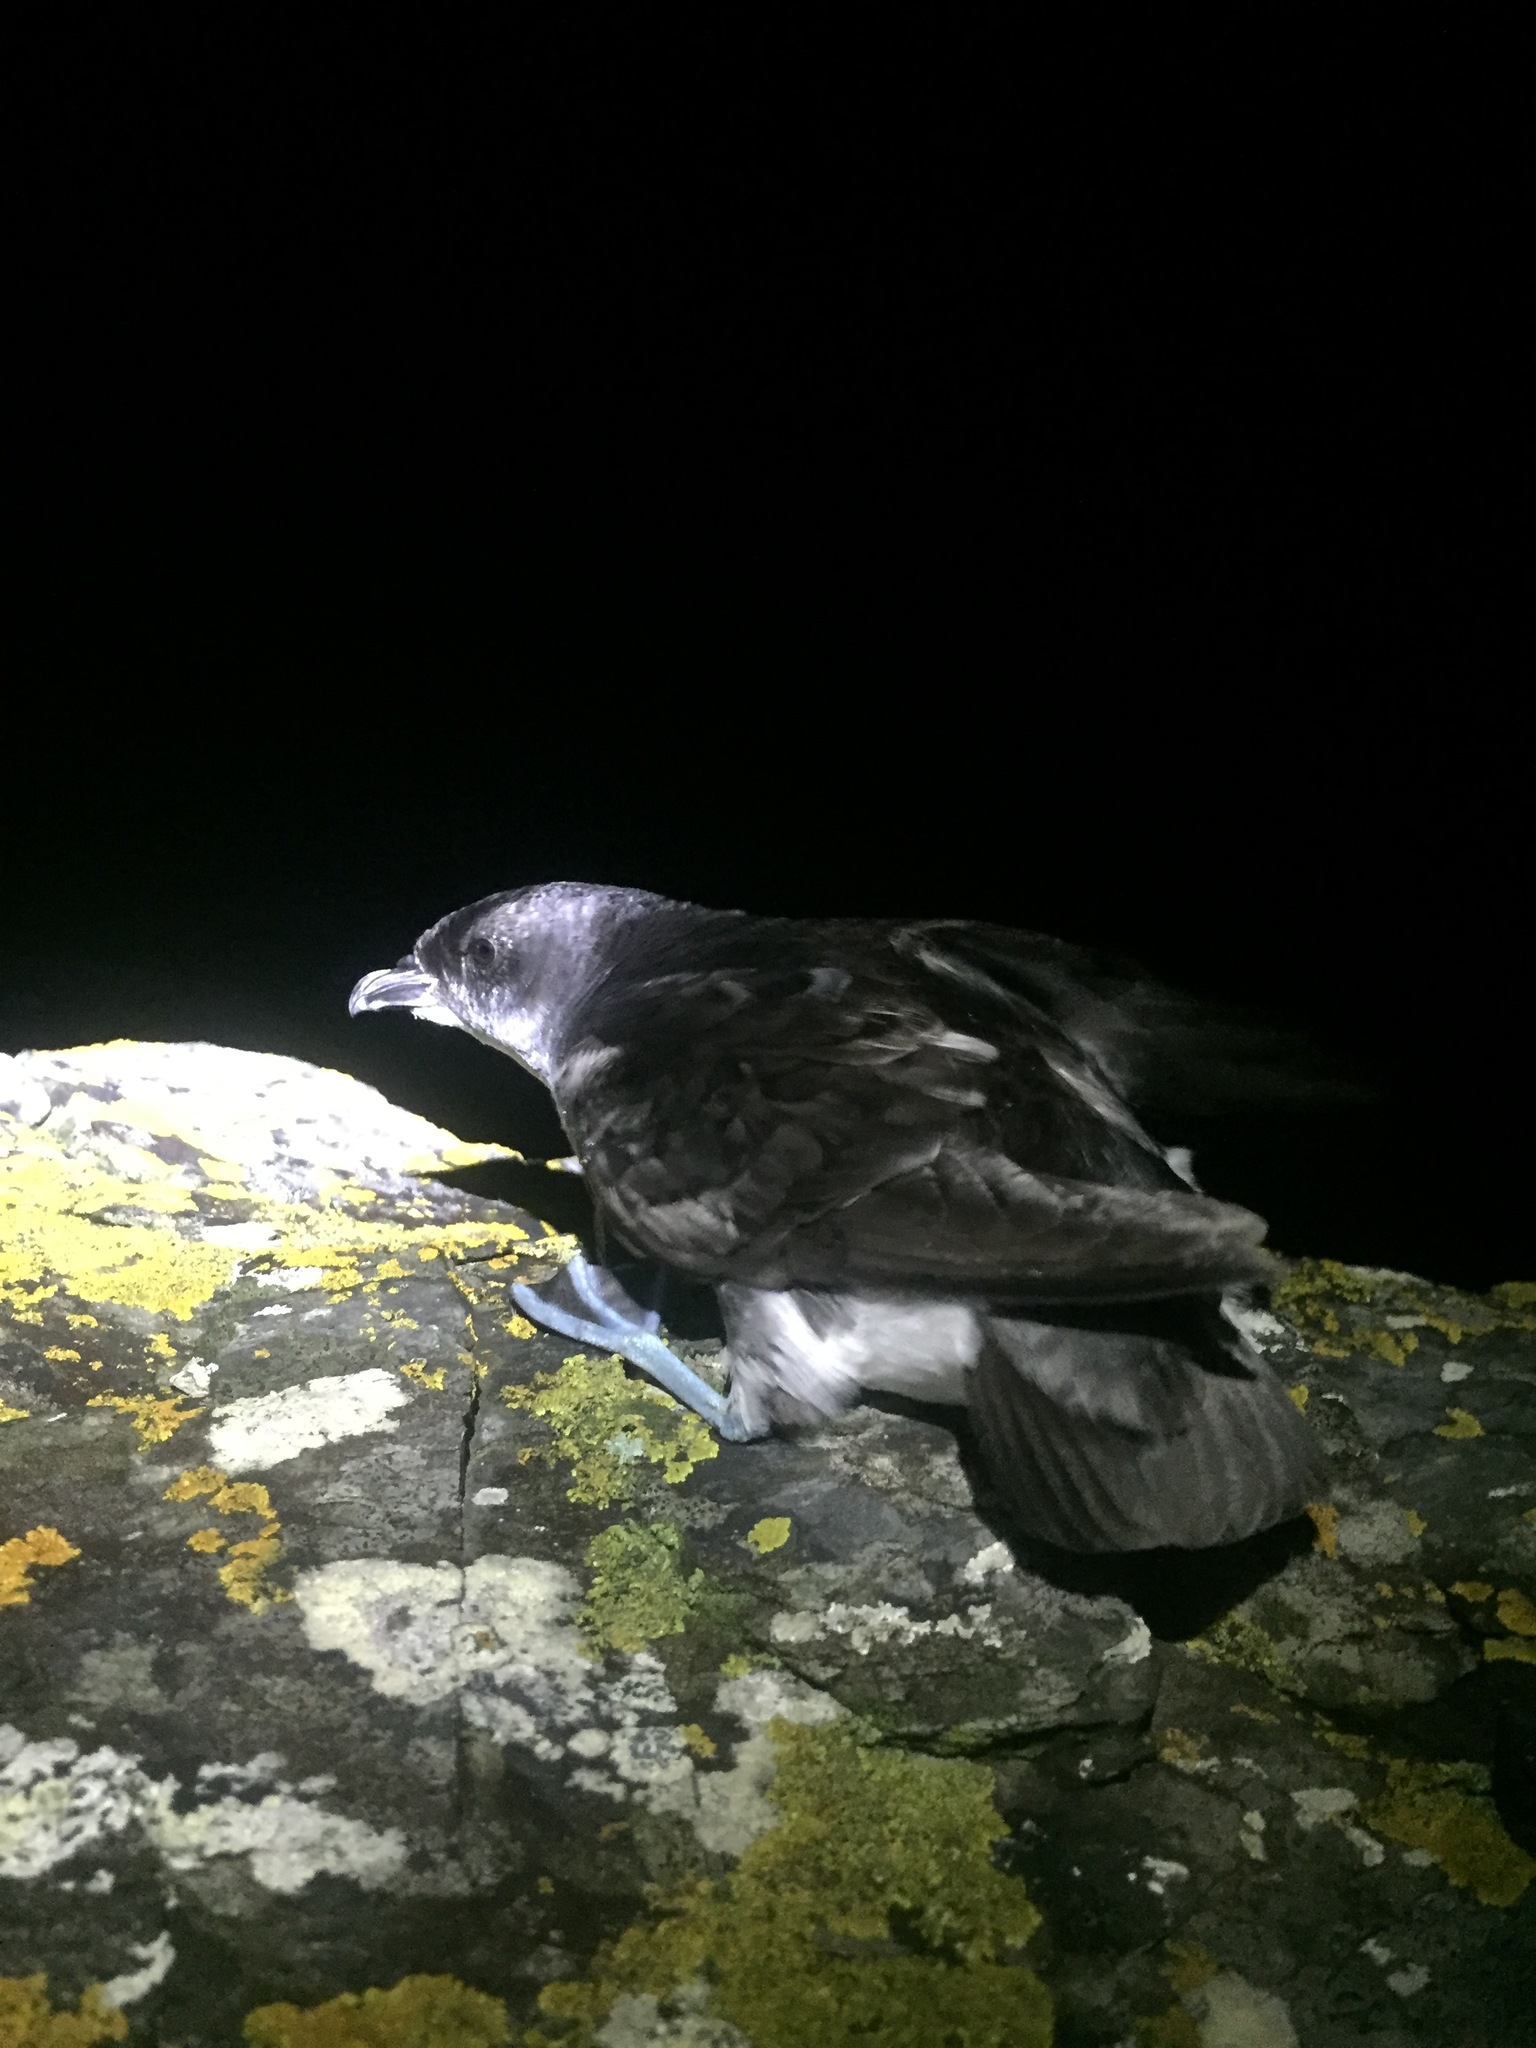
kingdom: Animalia
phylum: Chordata
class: Aves
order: Procellariiformes
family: Pelecanoididae
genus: Pelecanoides
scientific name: Pelecanoides urinatrix
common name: Common diving-petrel
